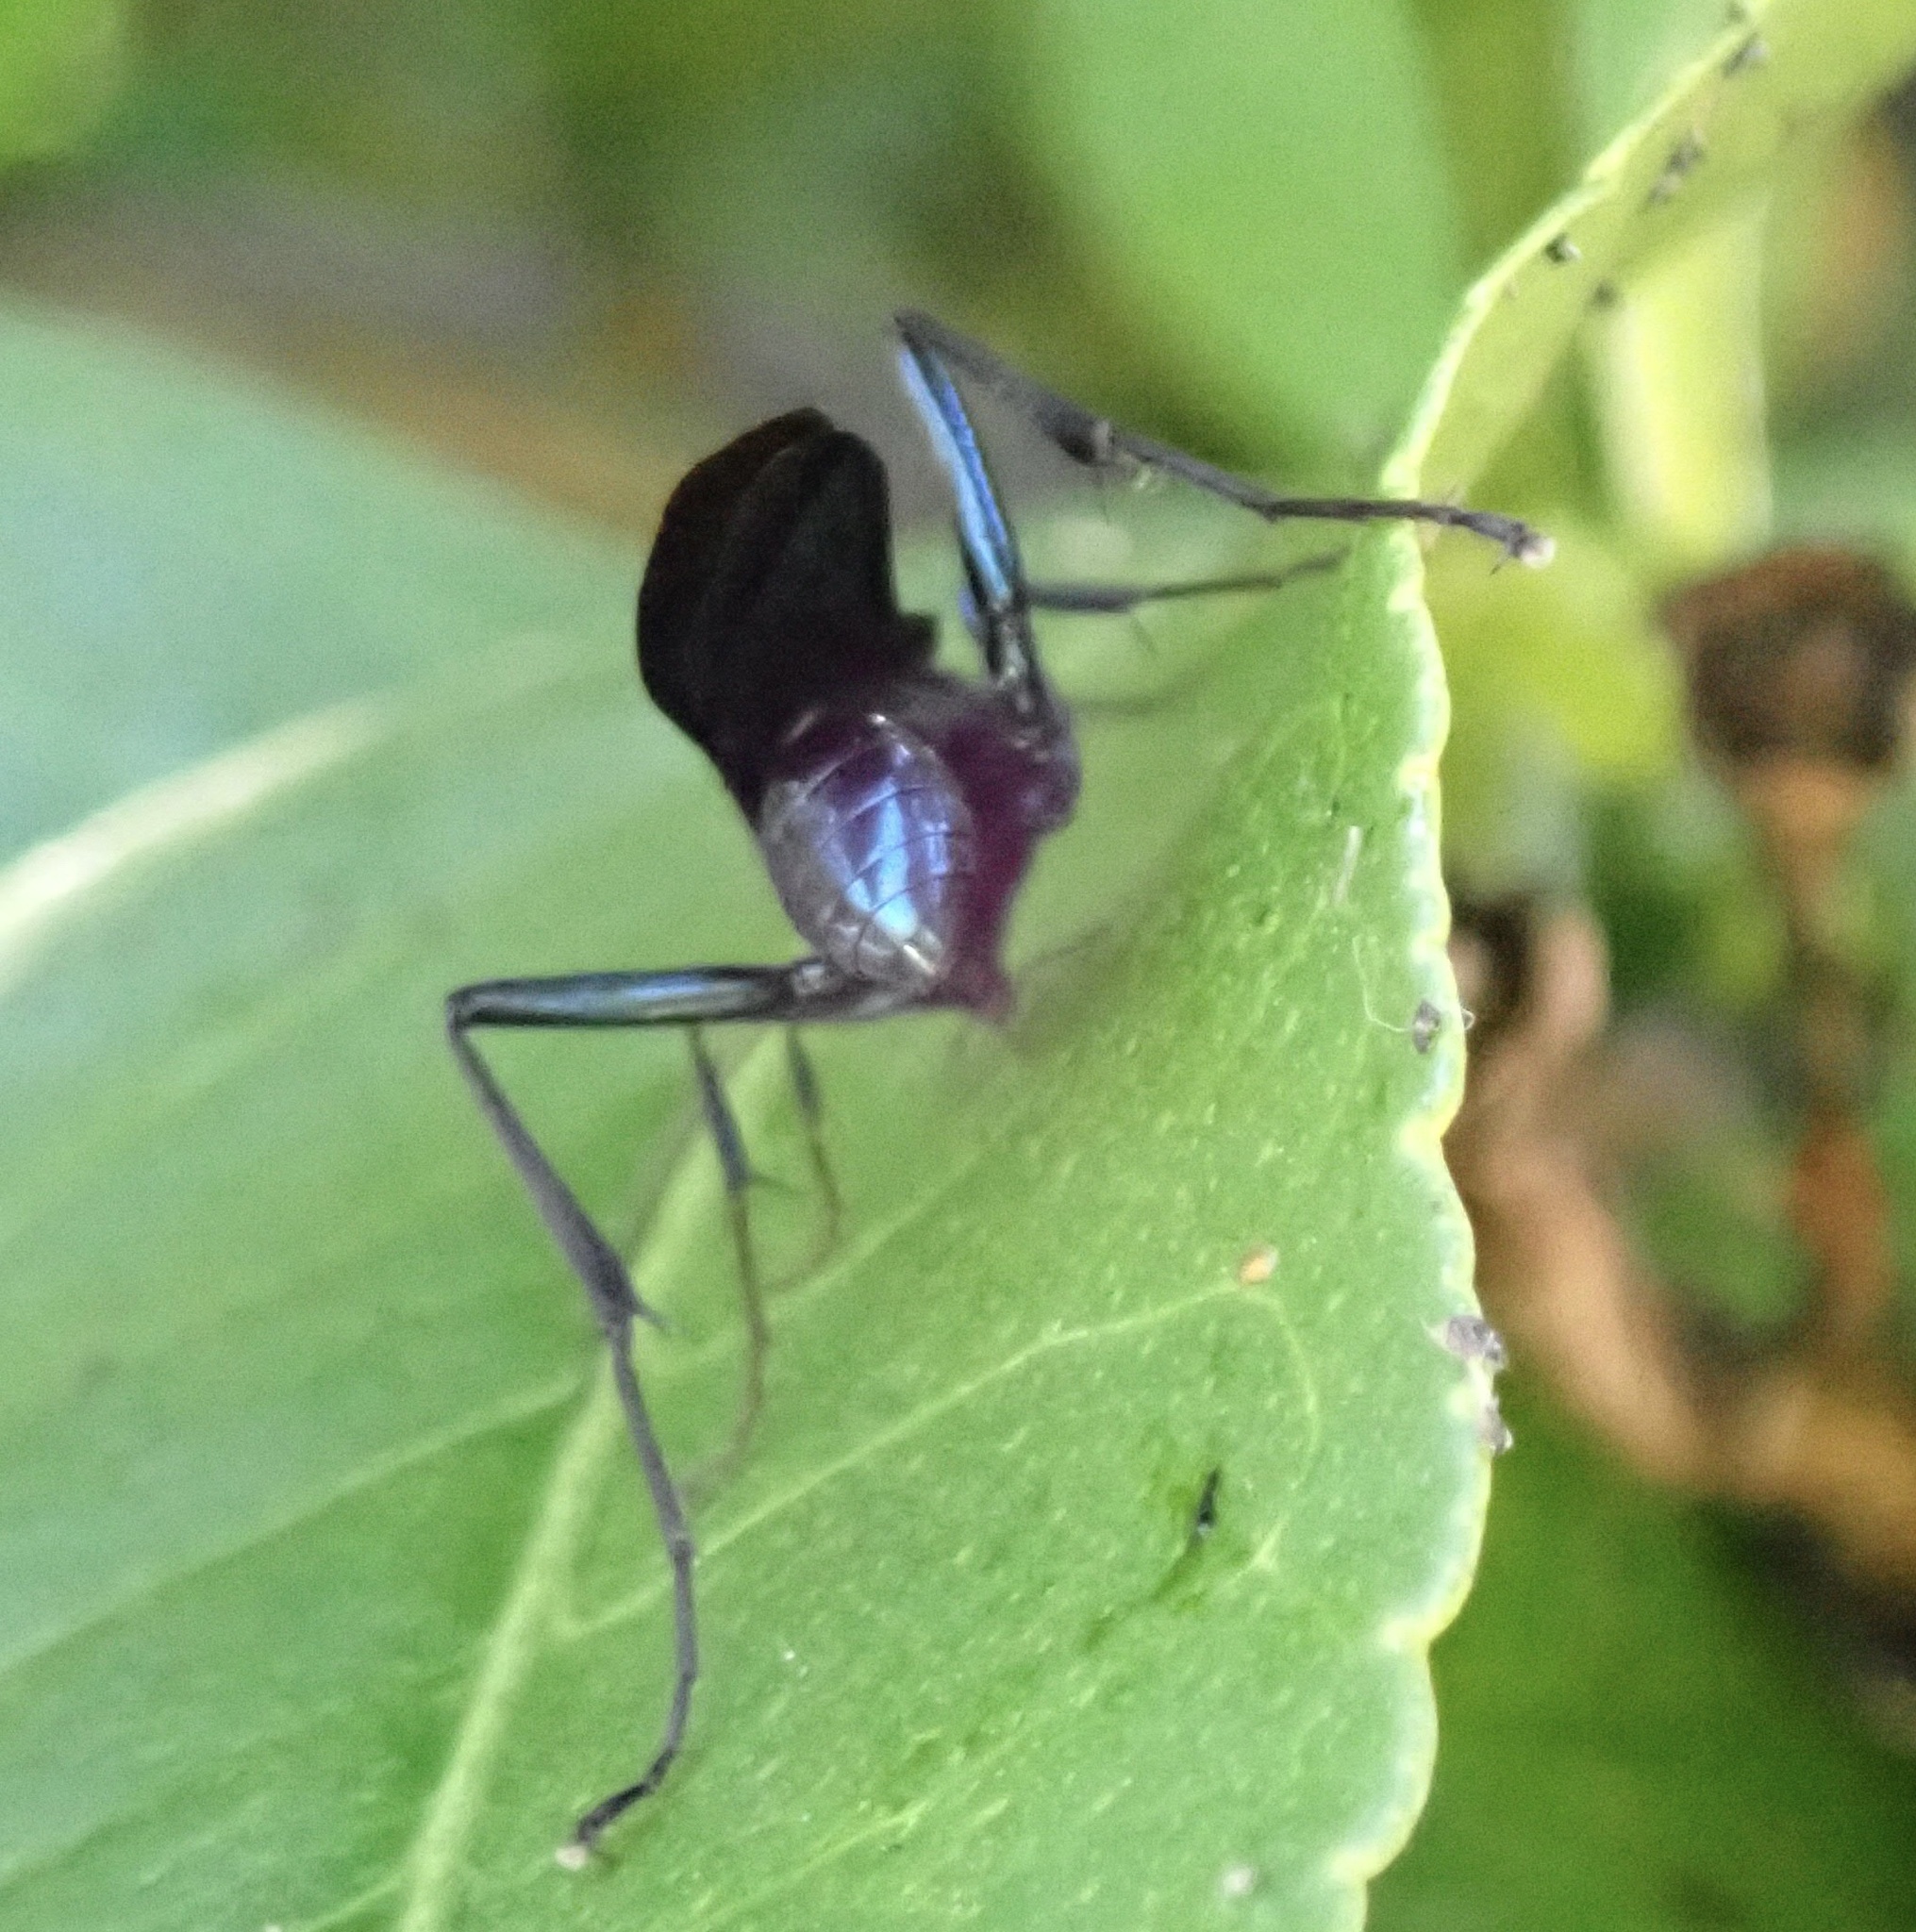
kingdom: Animalia
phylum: Arthropoda
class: Insecta
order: Hymenoptera
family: Sphecidae
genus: Chalybion
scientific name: Chalybion californicum
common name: Mud dauber
